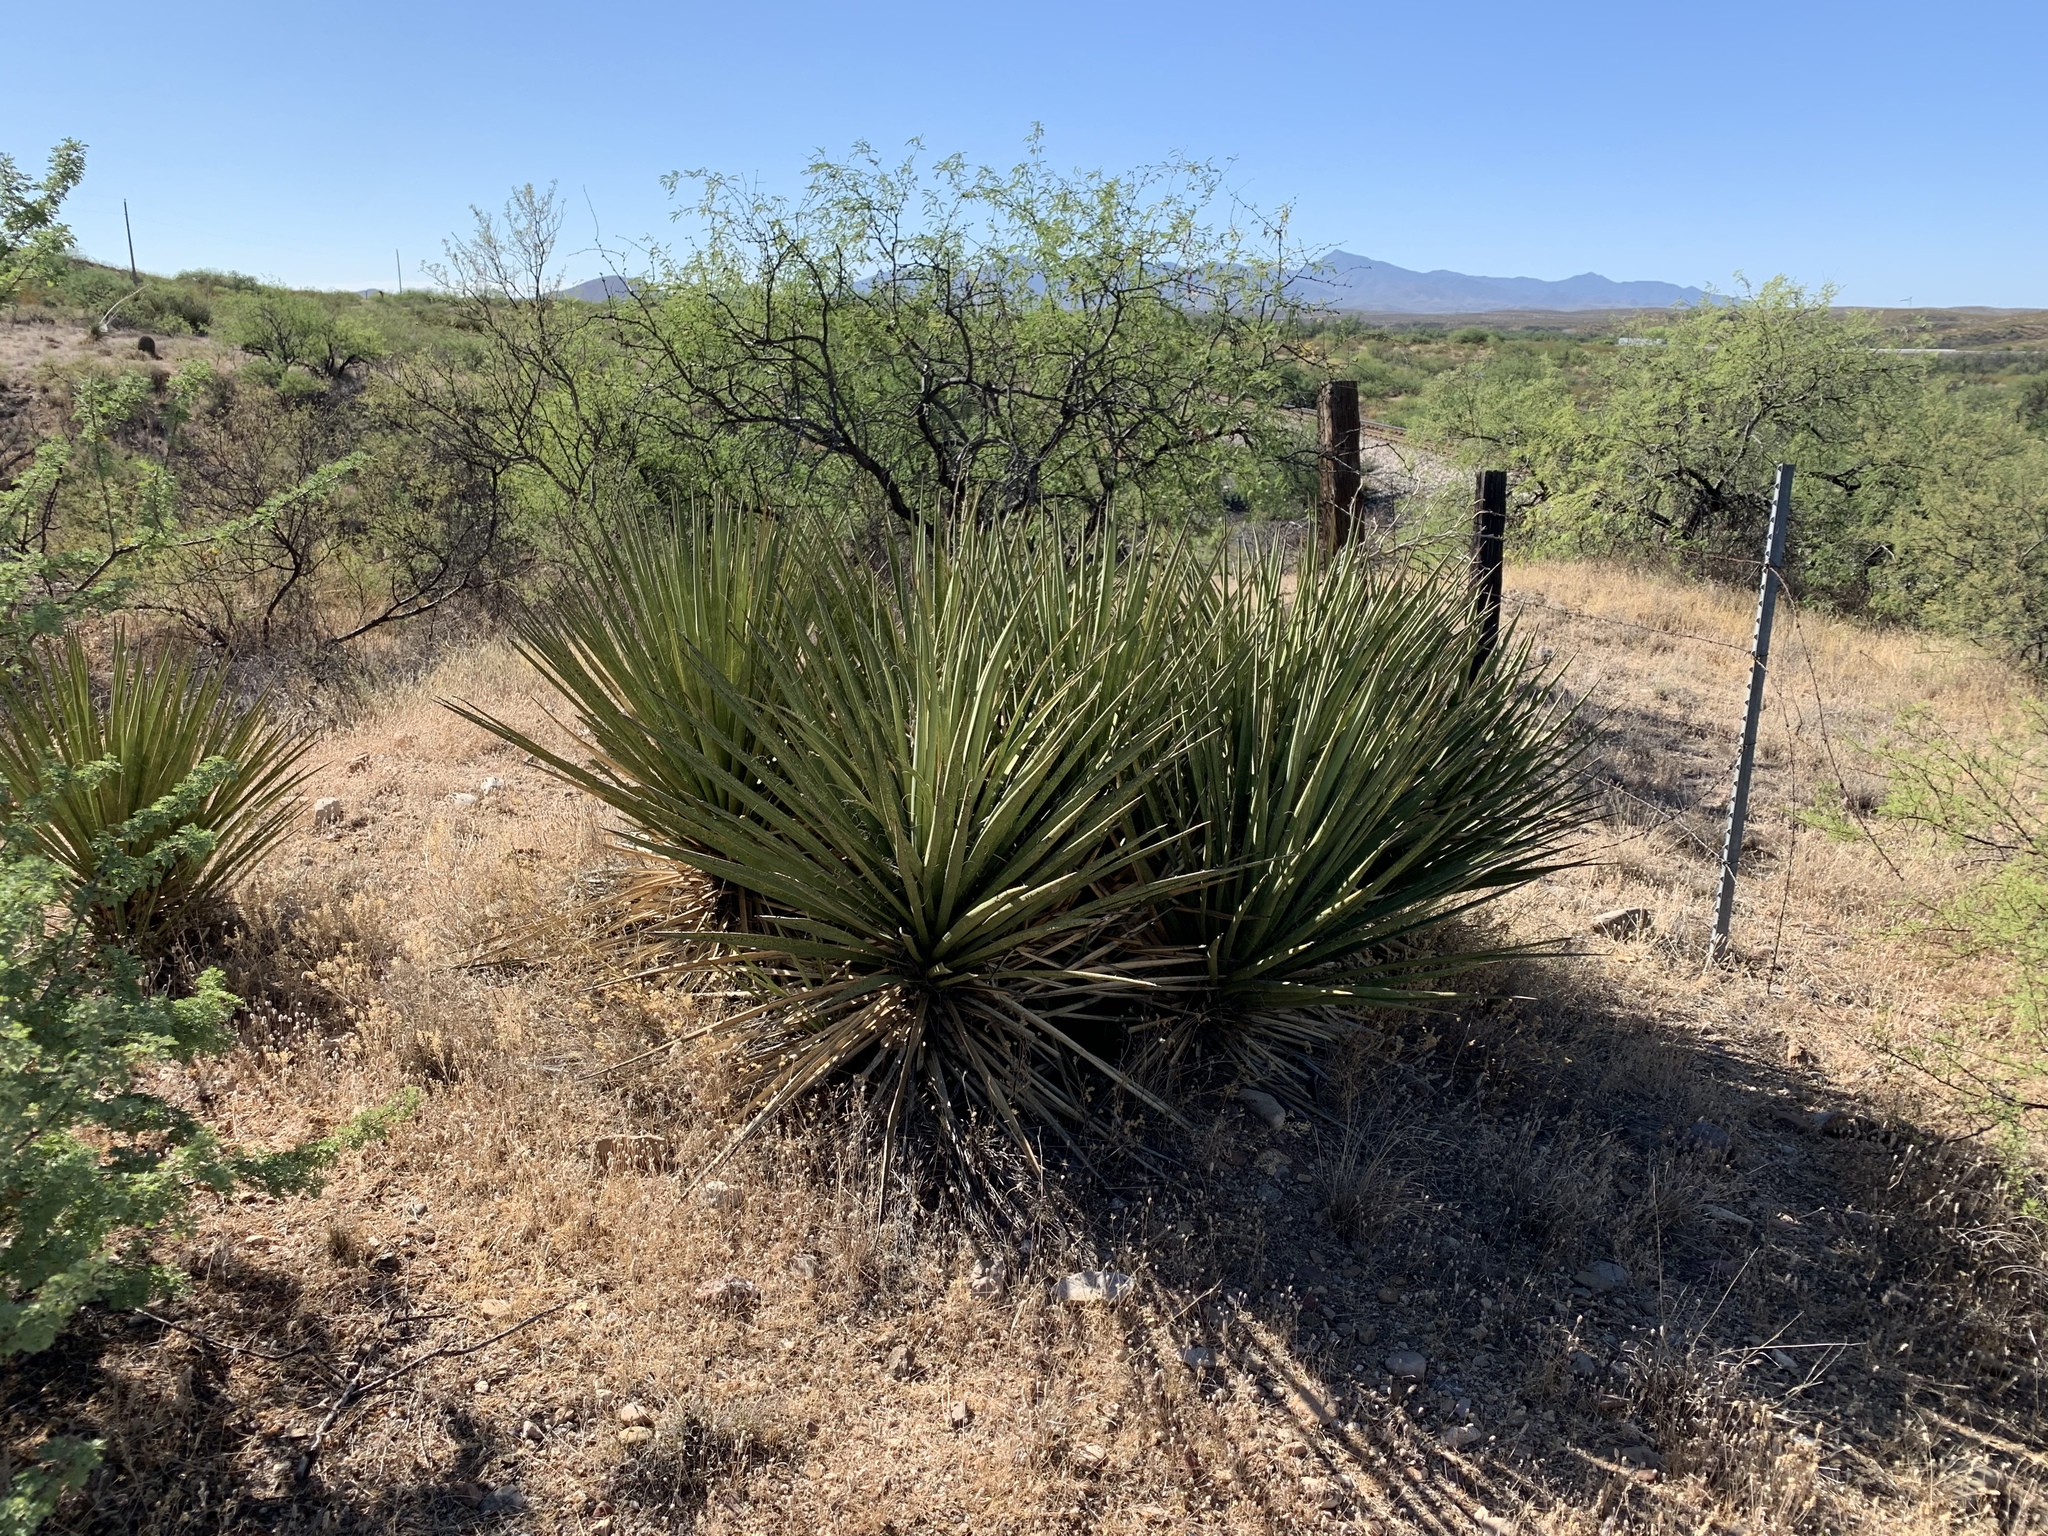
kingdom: Plantae
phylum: Tracheophyta
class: Liliopsida
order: Asparagales
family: Asparagaceae
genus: Yucca
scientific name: Yucca baccata
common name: Banana yucca
